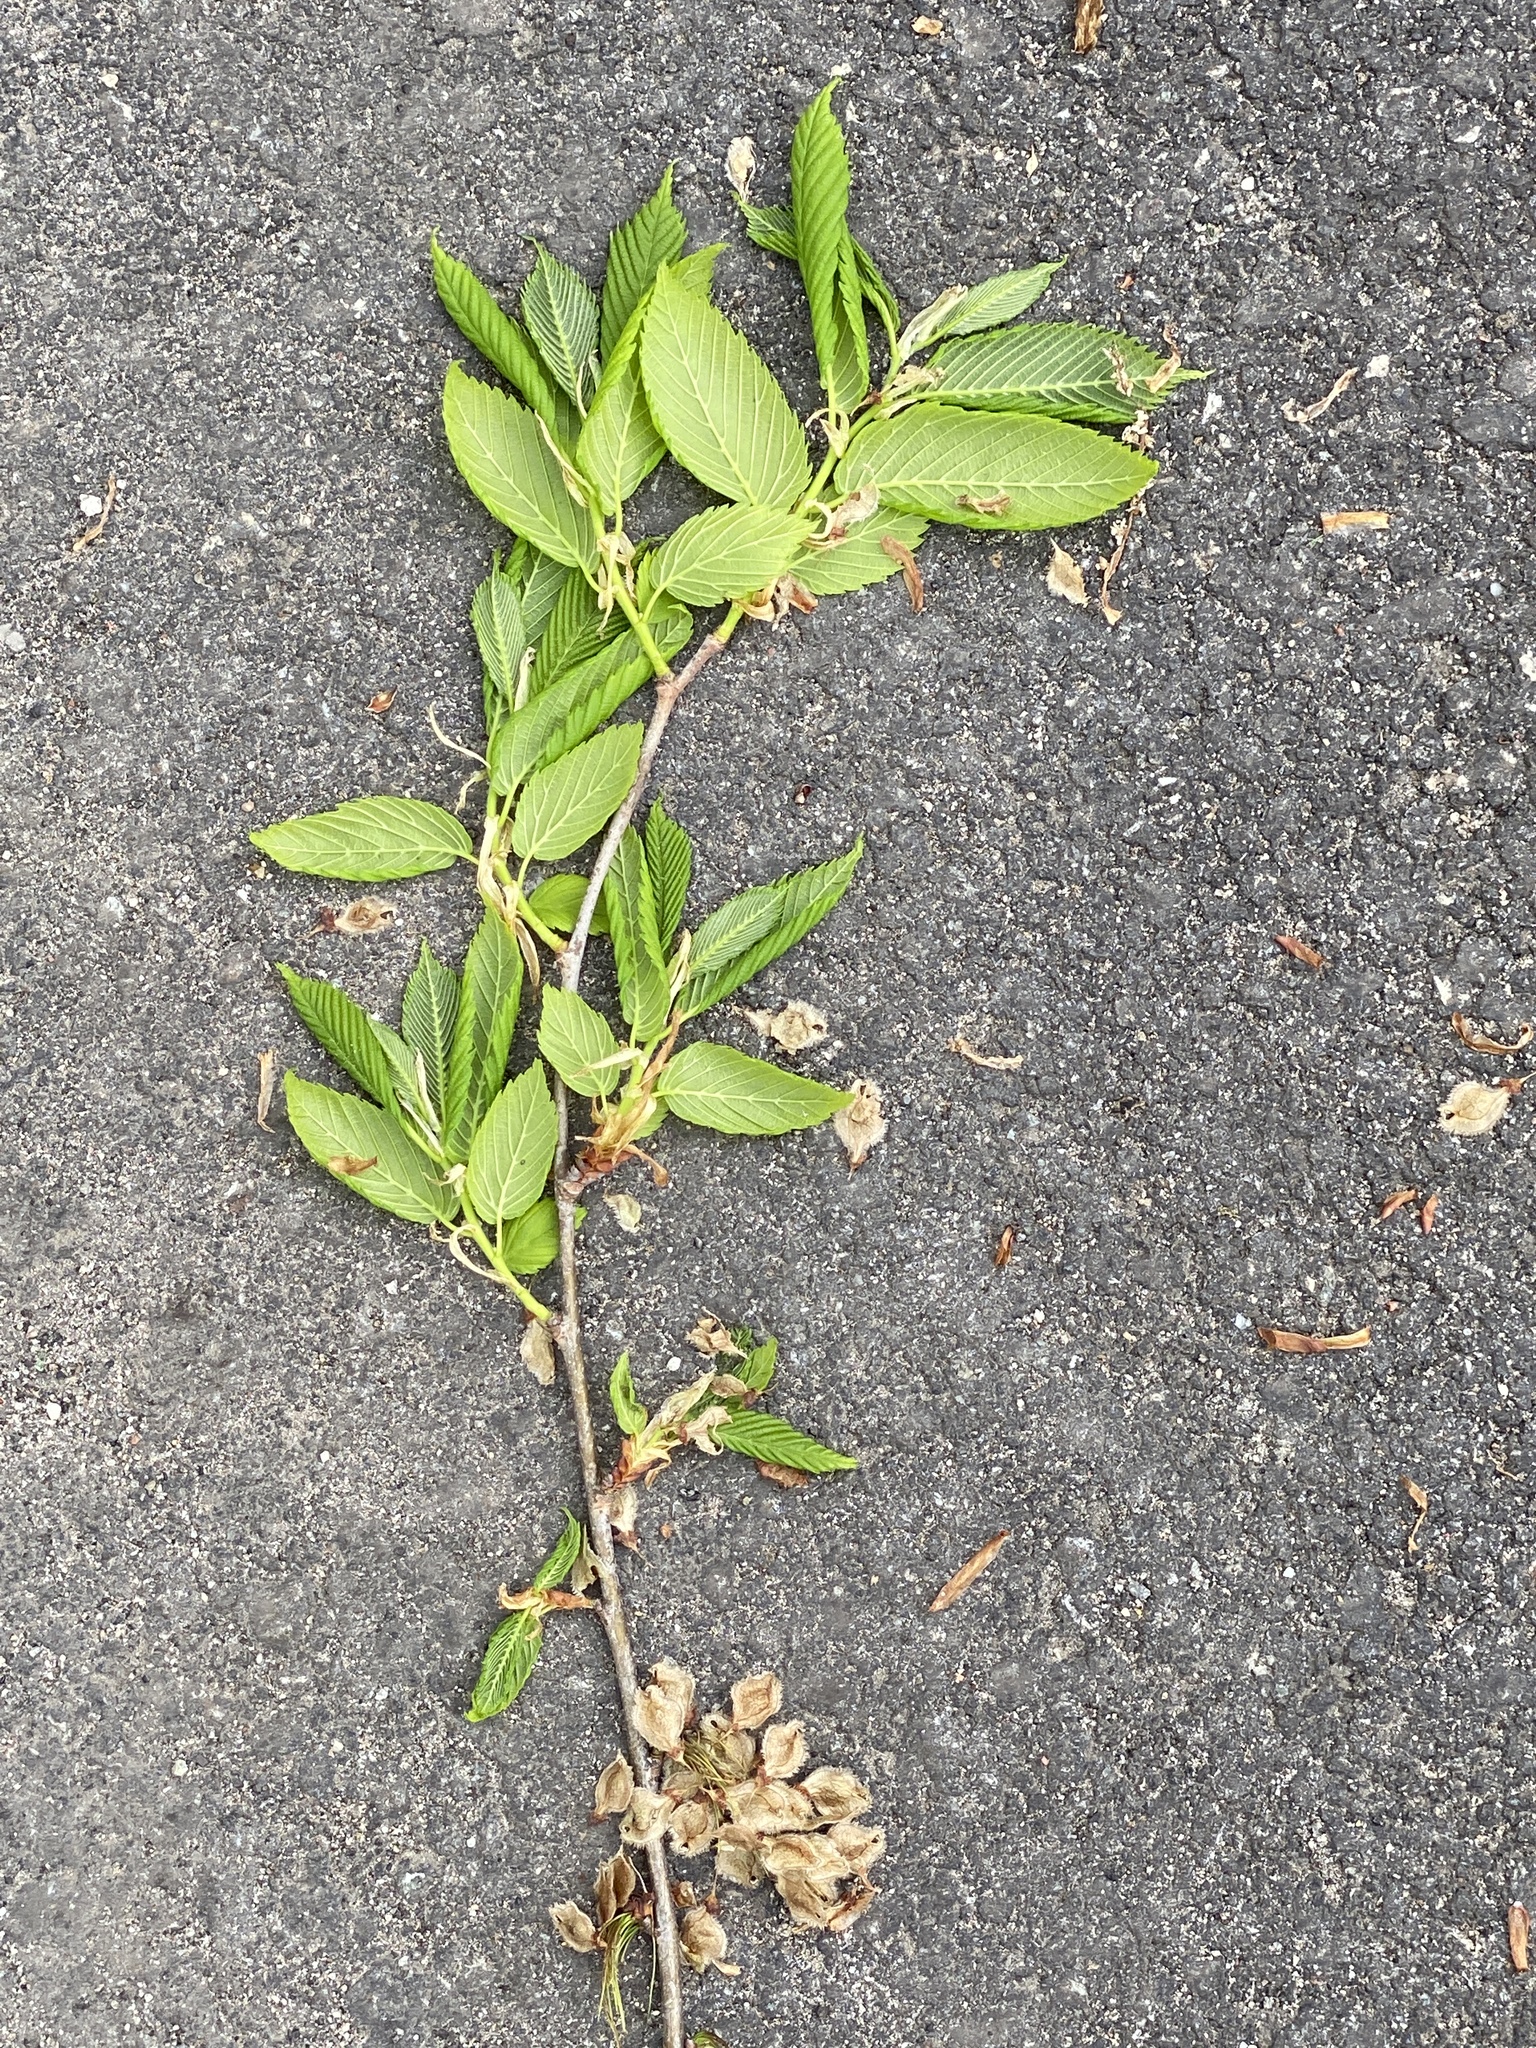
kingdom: Plantae
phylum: Tracheophyta
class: Magnoliopsida
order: Rosales
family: Ulmaceae
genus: Ulmus
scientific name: Ulmus americana
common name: American elm
